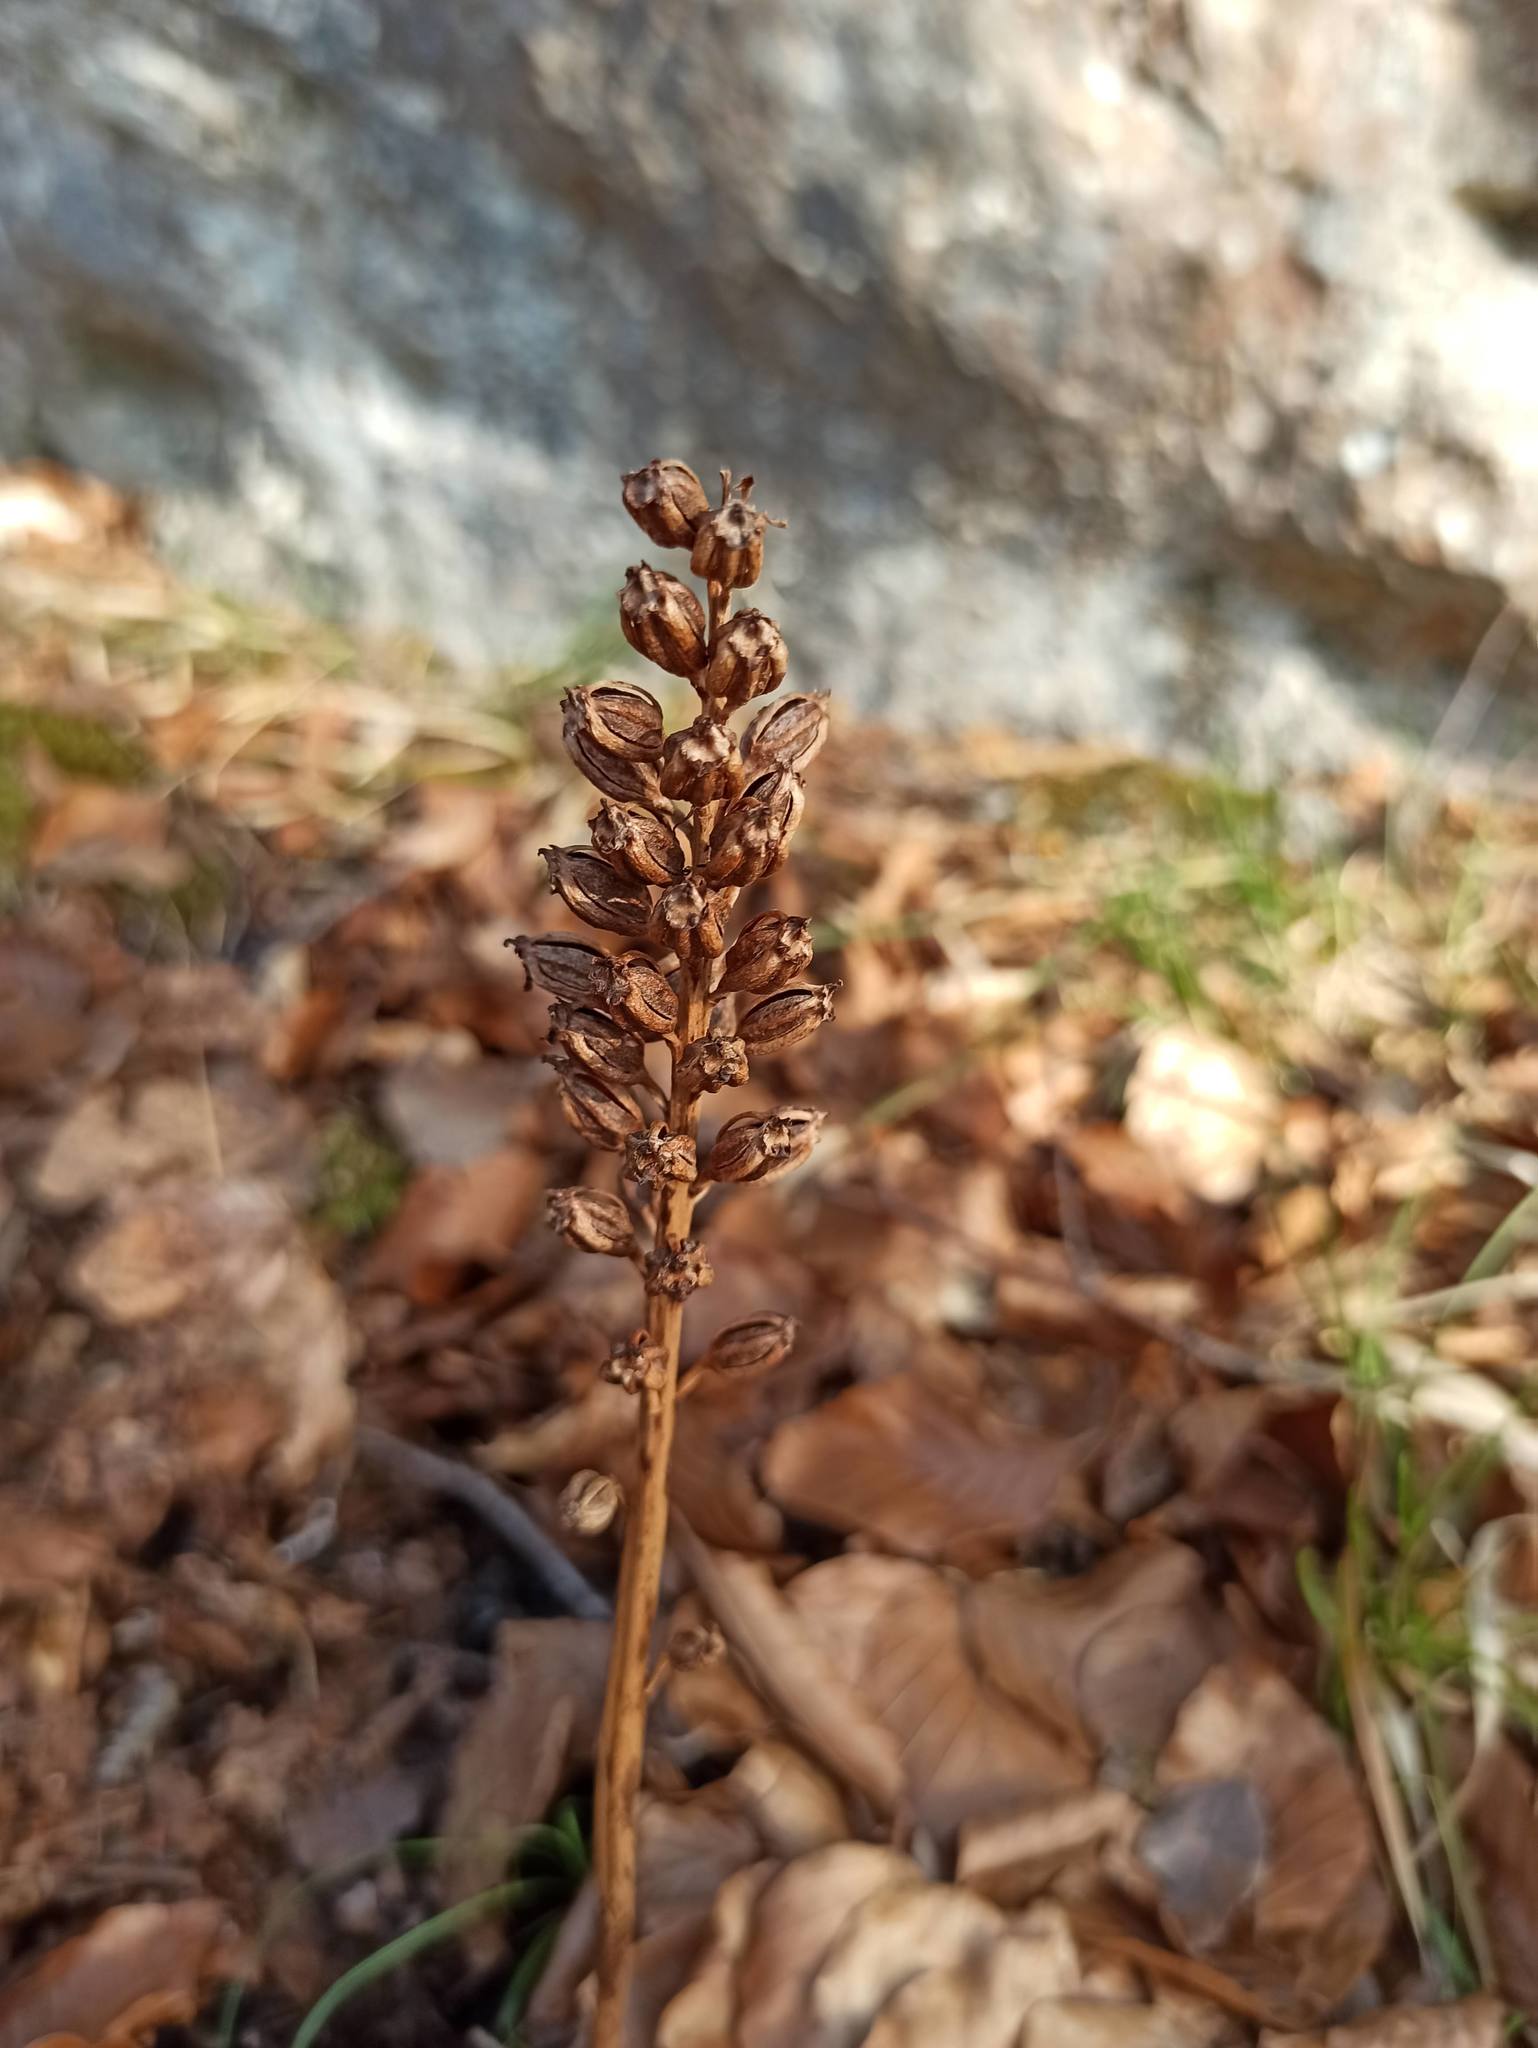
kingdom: Plantae
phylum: Tracheophyta
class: Liliopsida
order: Asparagales
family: Orchidaceae
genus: Neottia
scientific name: Neottia nidus-avis
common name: Bird's-nest orchid
